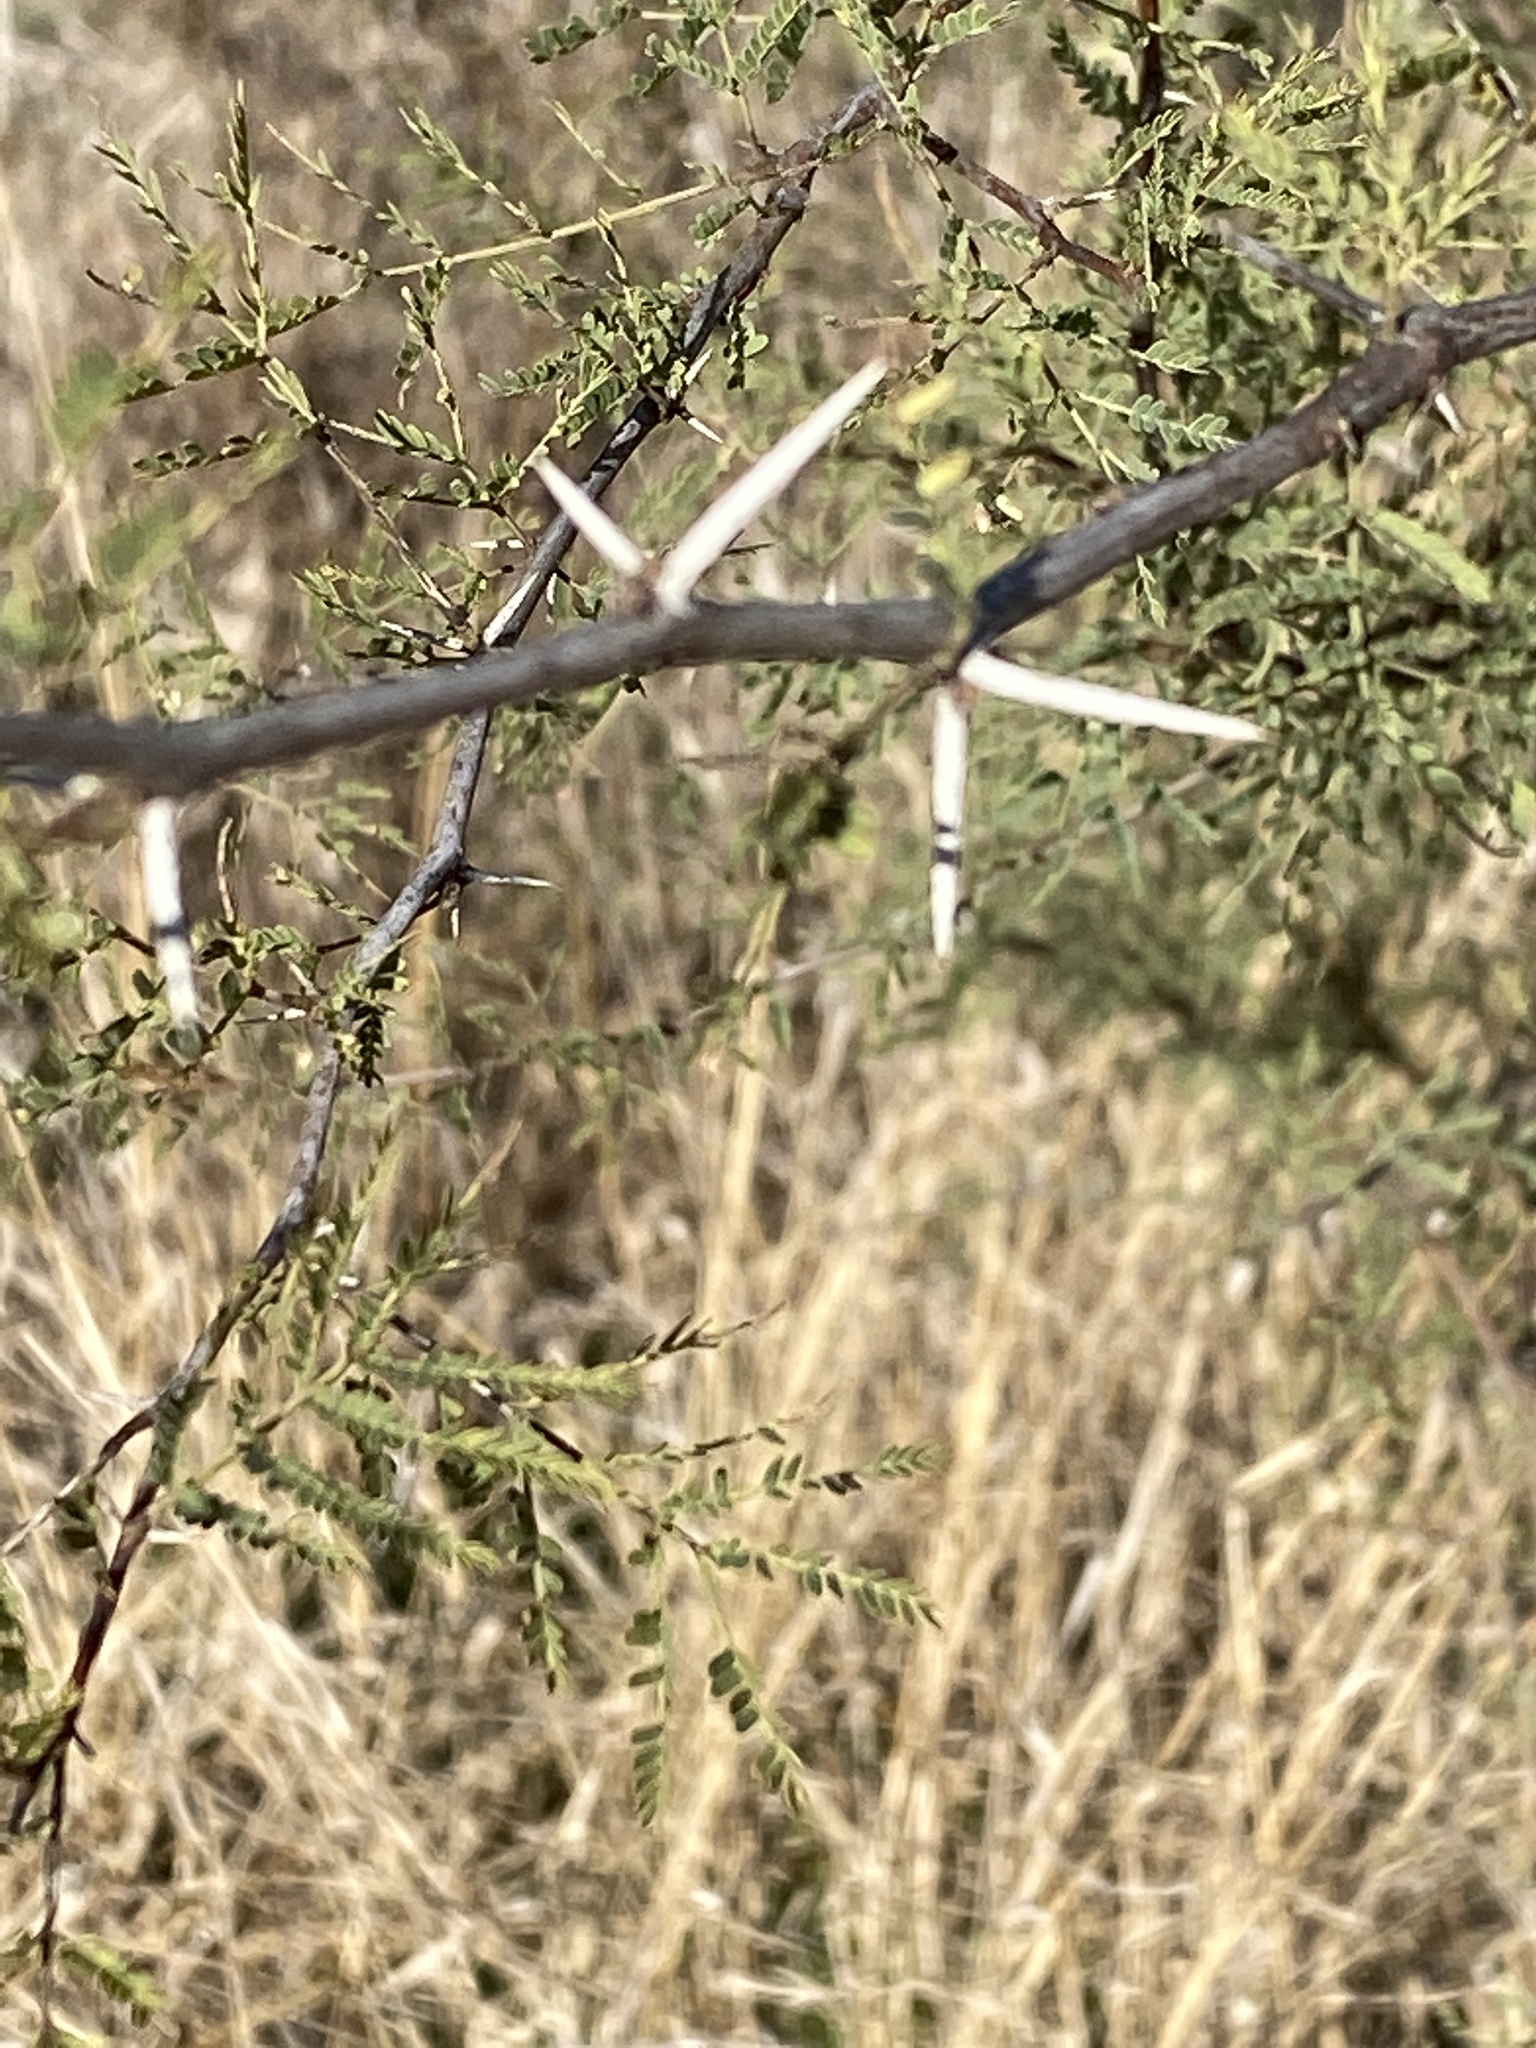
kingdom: Plantae
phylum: Tracheophyta
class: Magnoliopsida
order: Fabales
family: Fabaceae
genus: Vachellia
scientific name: Vachellia farnesiana
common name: Sweet acacia
